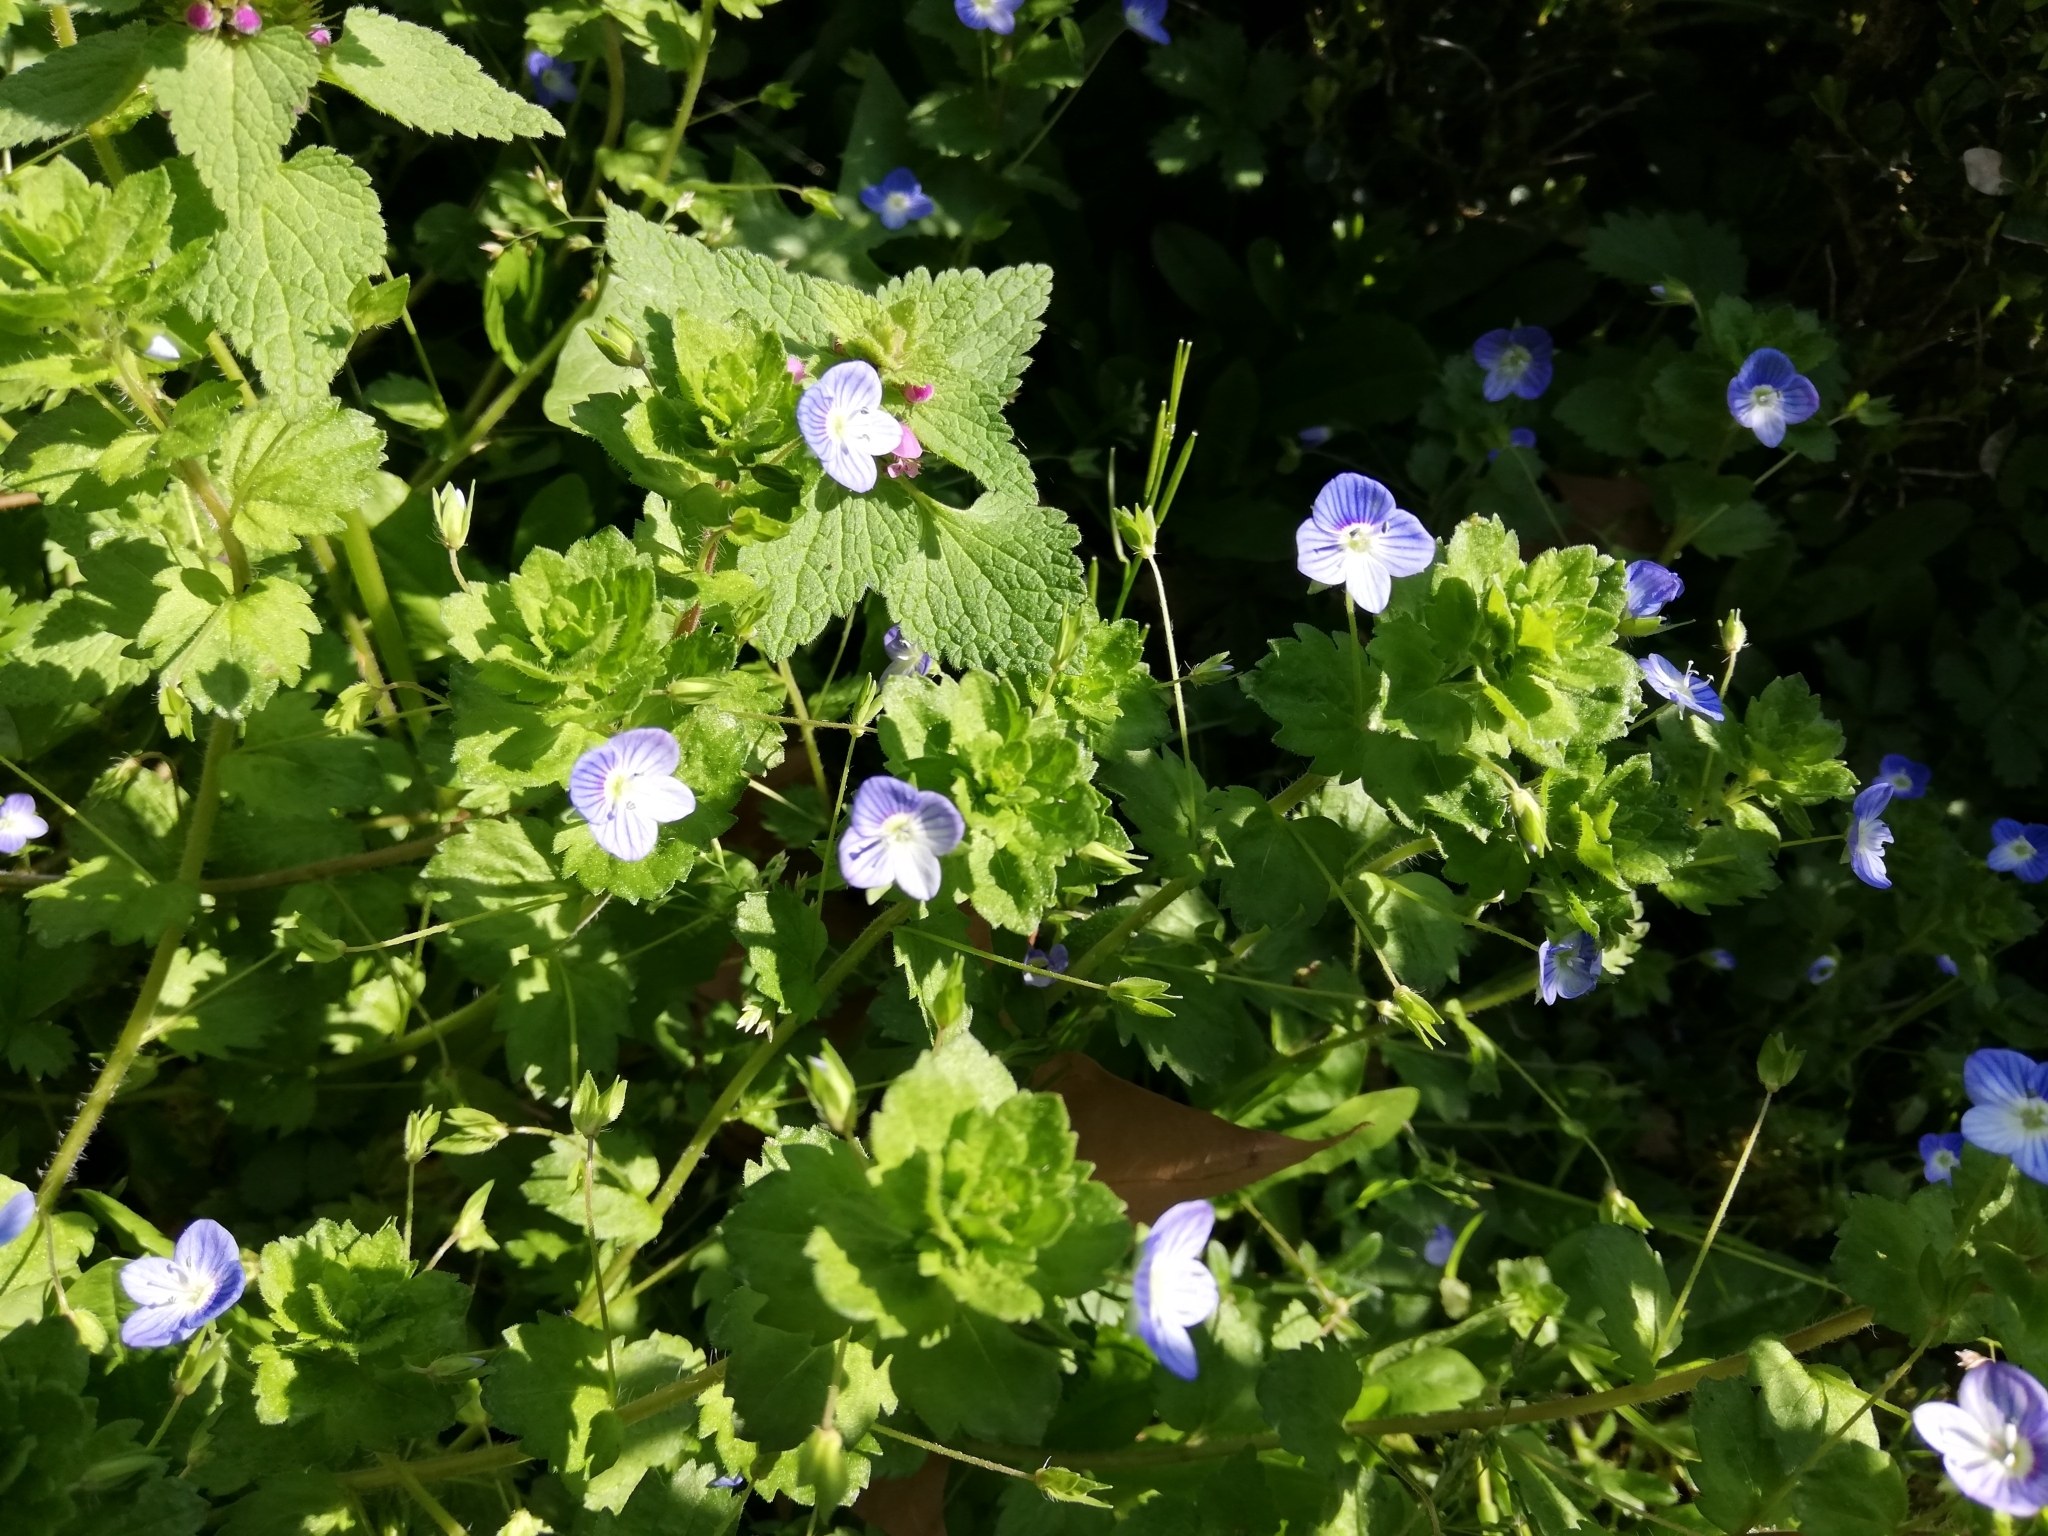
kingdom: Plantae
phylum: Tracheophyta
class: Magnoliopsida
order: Lamiales
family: Plantaginaceae
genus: Veronica
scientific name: Veronica persica
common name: Common field-speedwell
